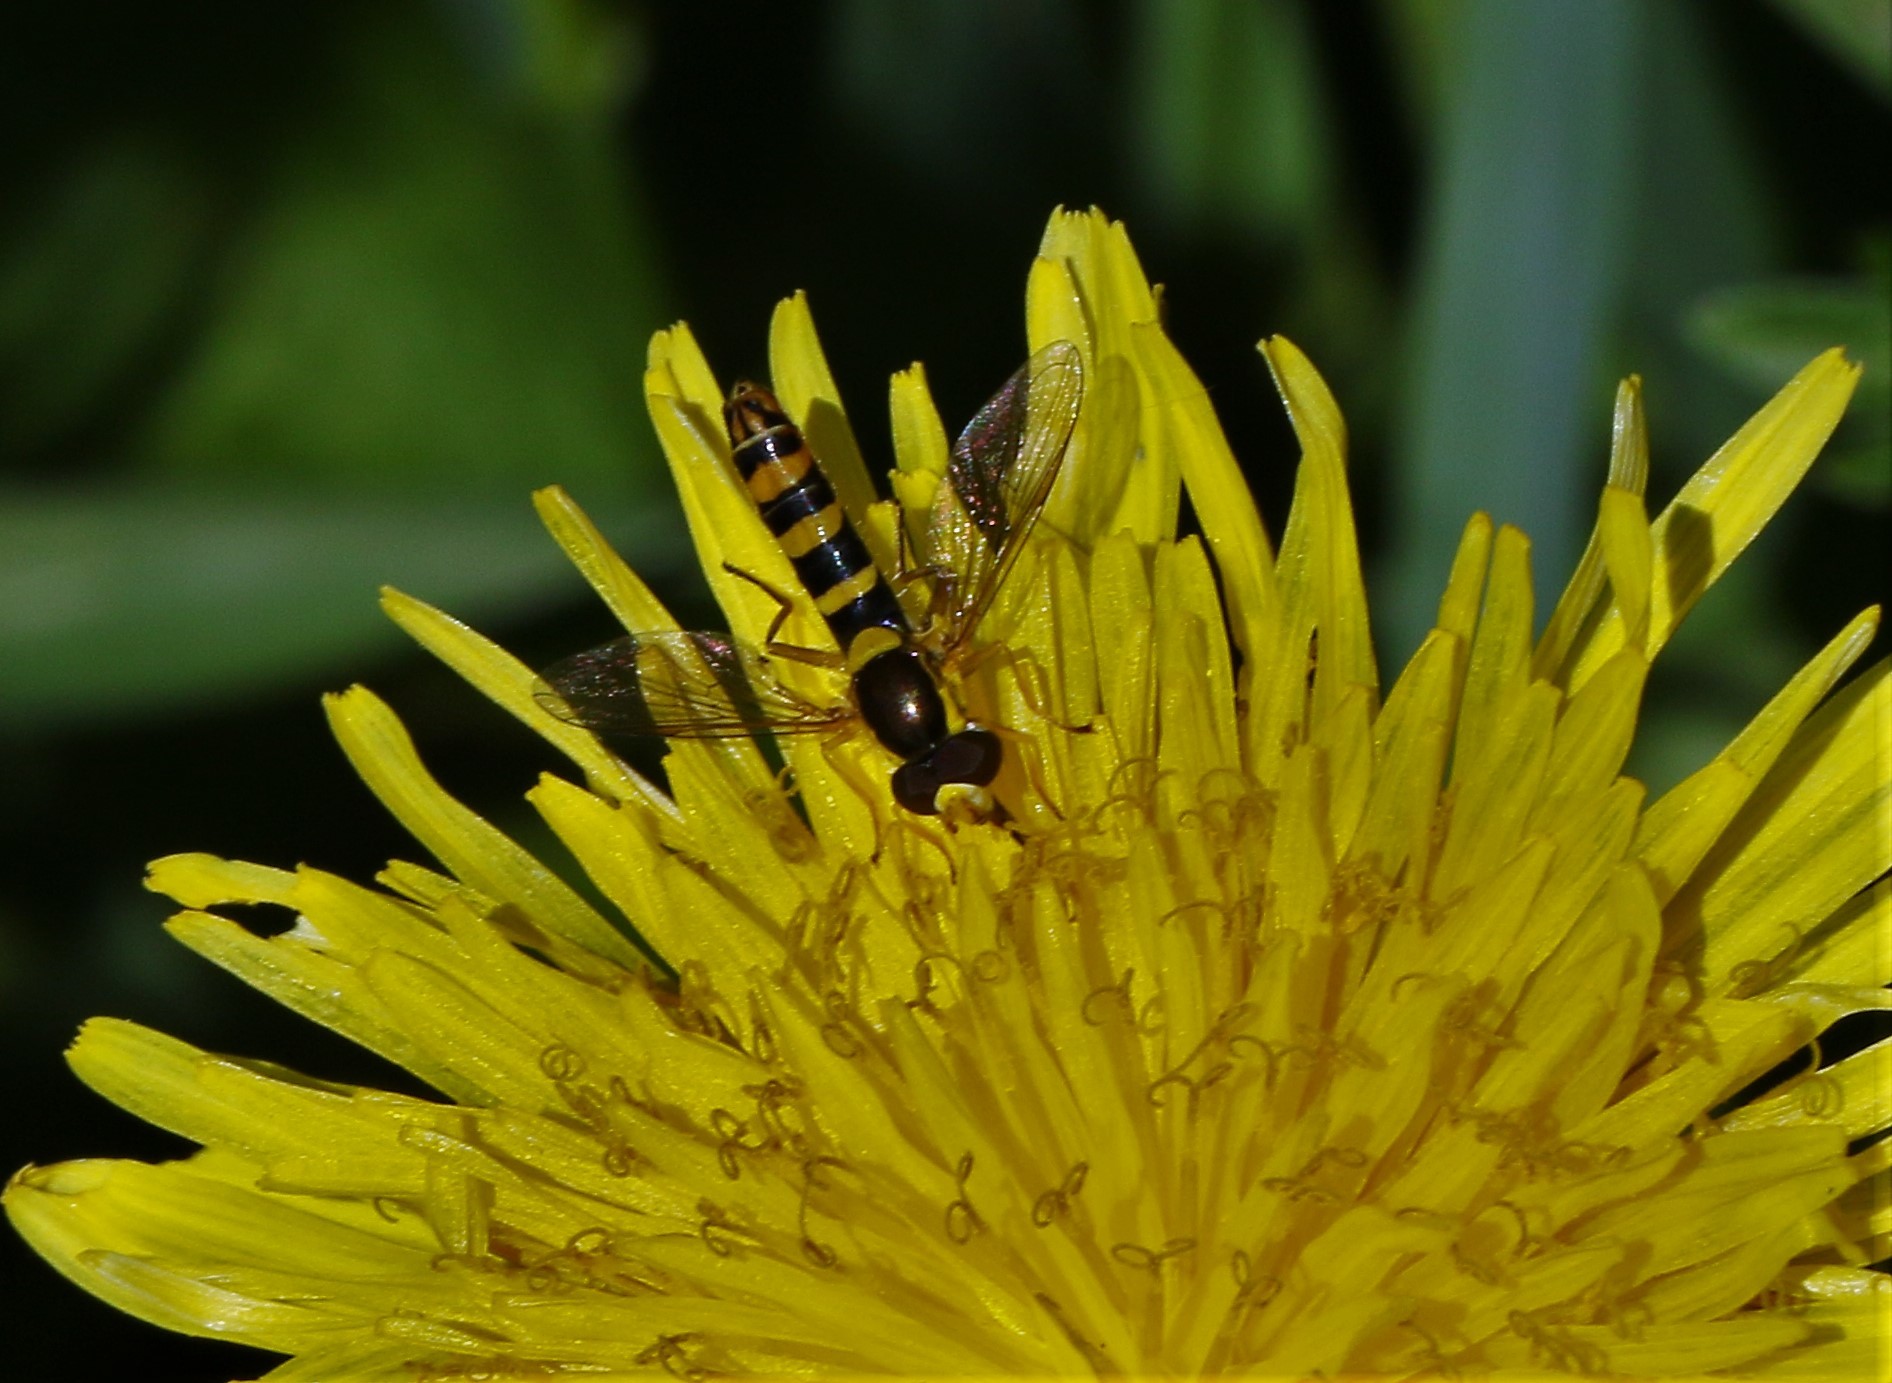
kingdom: Animalia
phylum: Arthropoda
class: Insecta
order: Diptera
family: Syrphidae
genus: Sphaerophoria
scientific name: Sphaerophoria philantha
